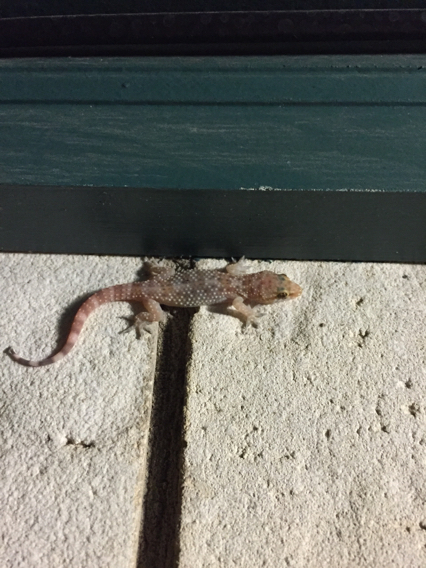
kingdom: Animalia
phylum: Chordata
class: Squamata
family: Gekkonidae
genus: Hemidactylus
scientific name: Hemidactylus turcicus
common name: Turkish gecko
